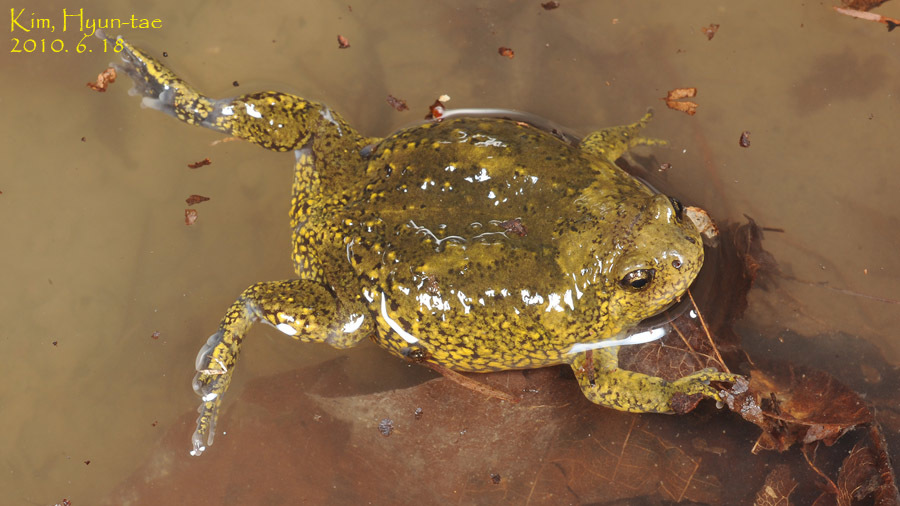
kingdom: Animalia
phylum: Chordata
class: Amphibia
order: Anura
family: Microhylidae
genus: Kaloula
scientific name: Kaloula borealis
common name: Boreal digging frog
